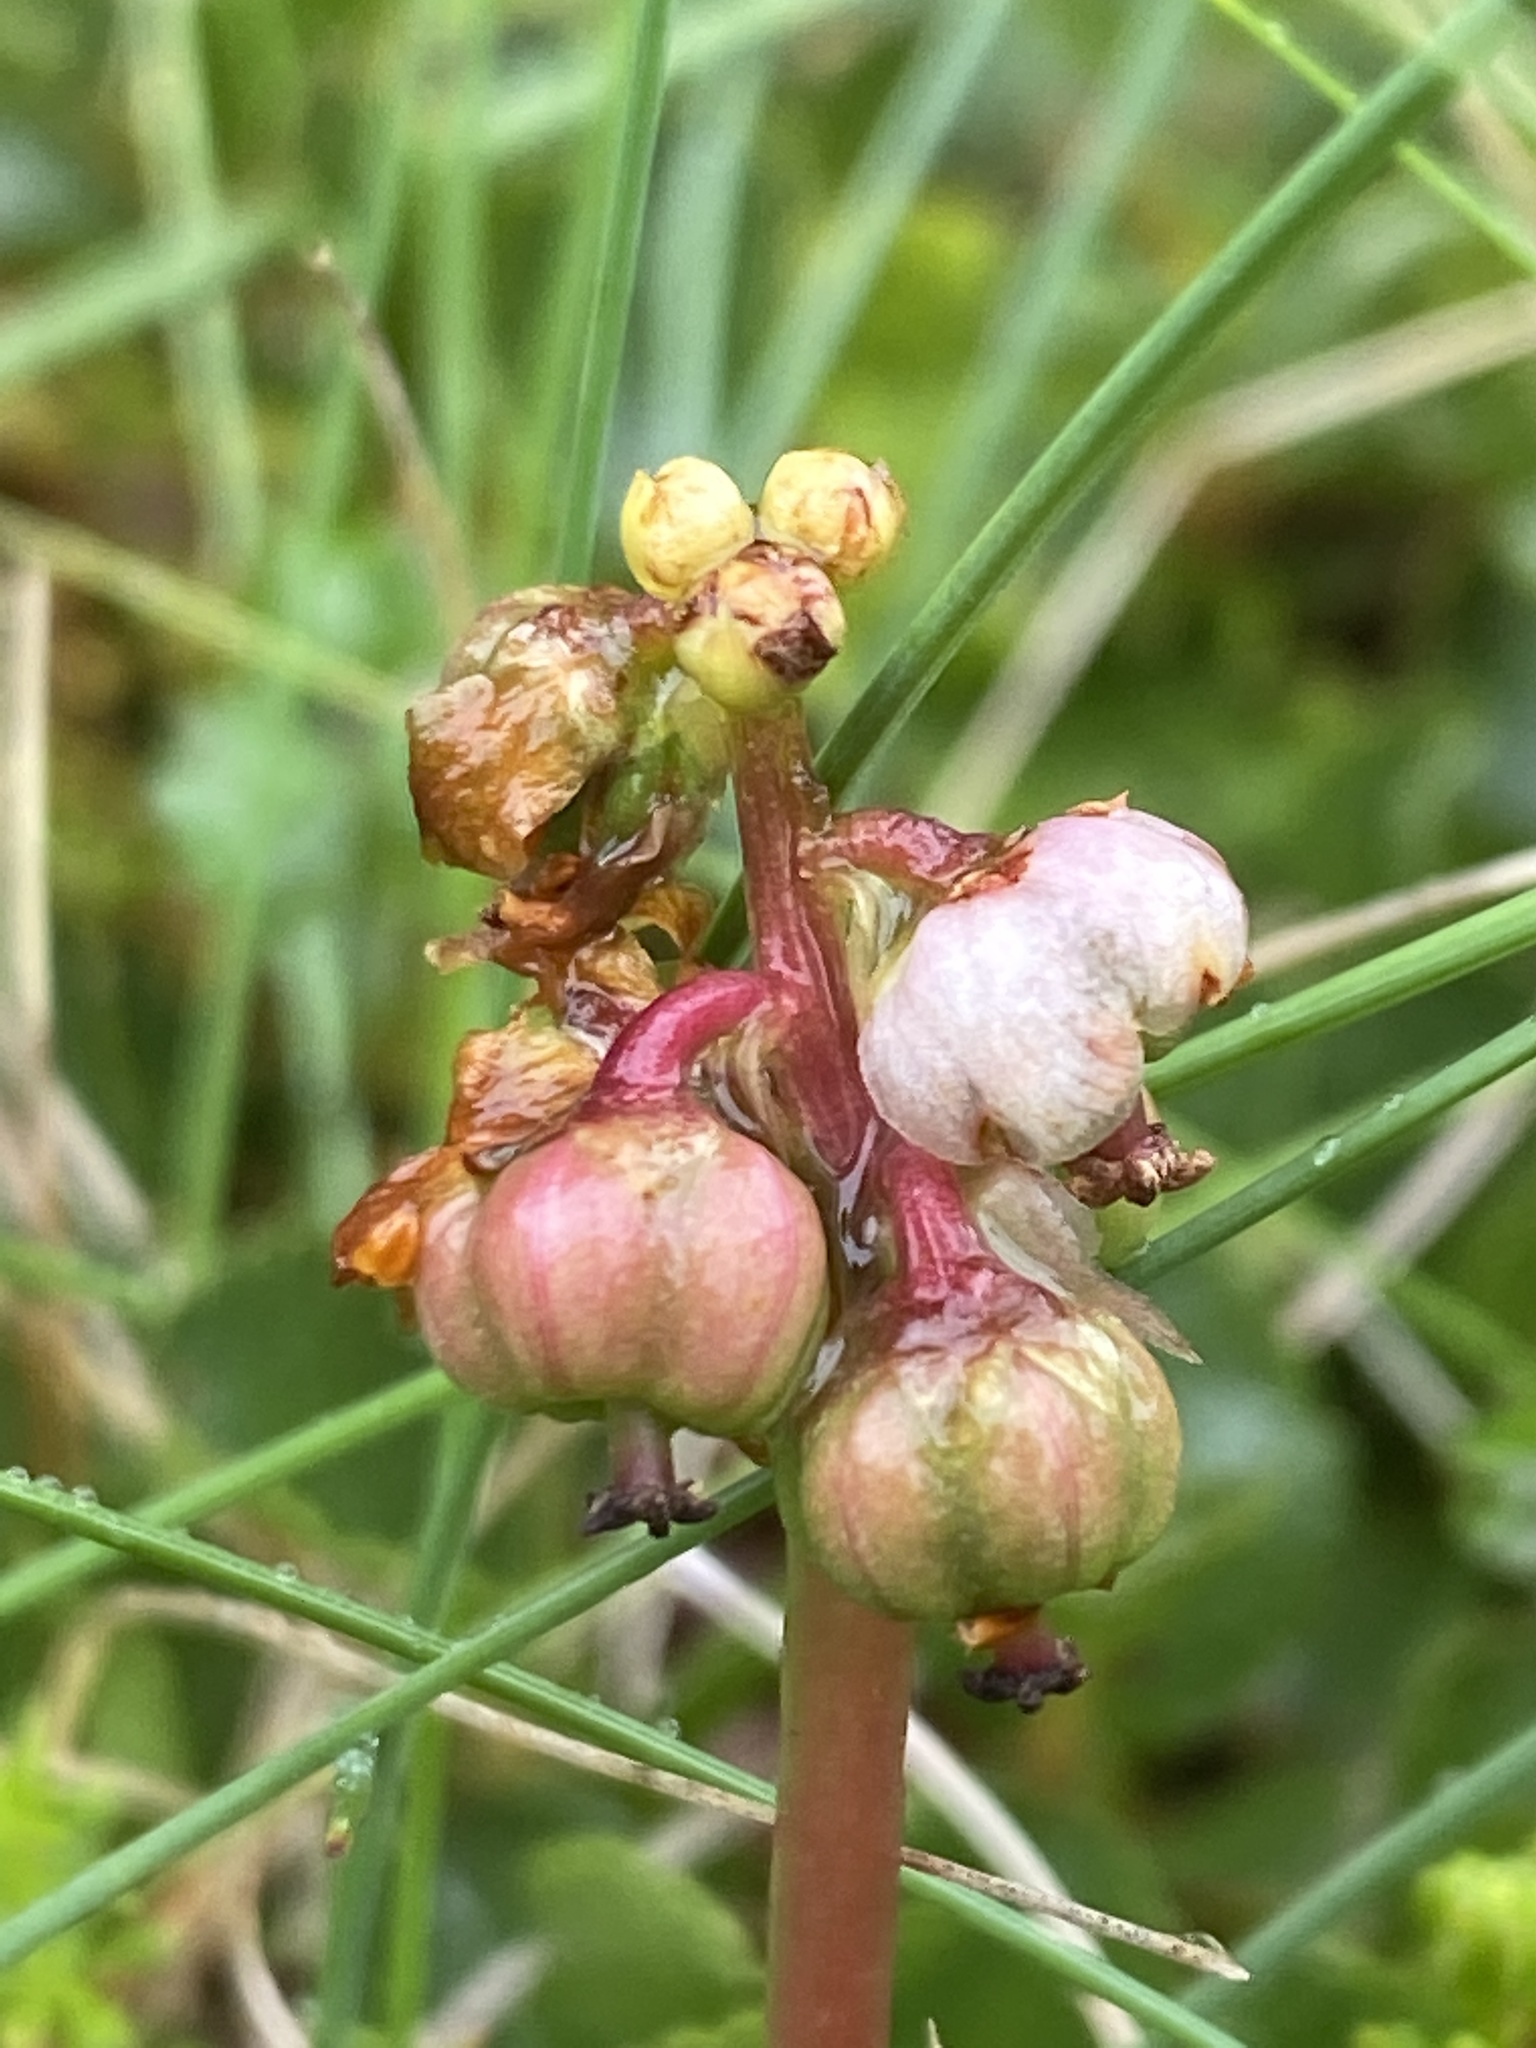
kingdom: Plantae
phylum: Tracheophyta
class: Magnoliopsida
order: Ericales
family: Ericaceae
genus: Pyrola
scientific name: Pyrola minor
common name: Common wintergreen
